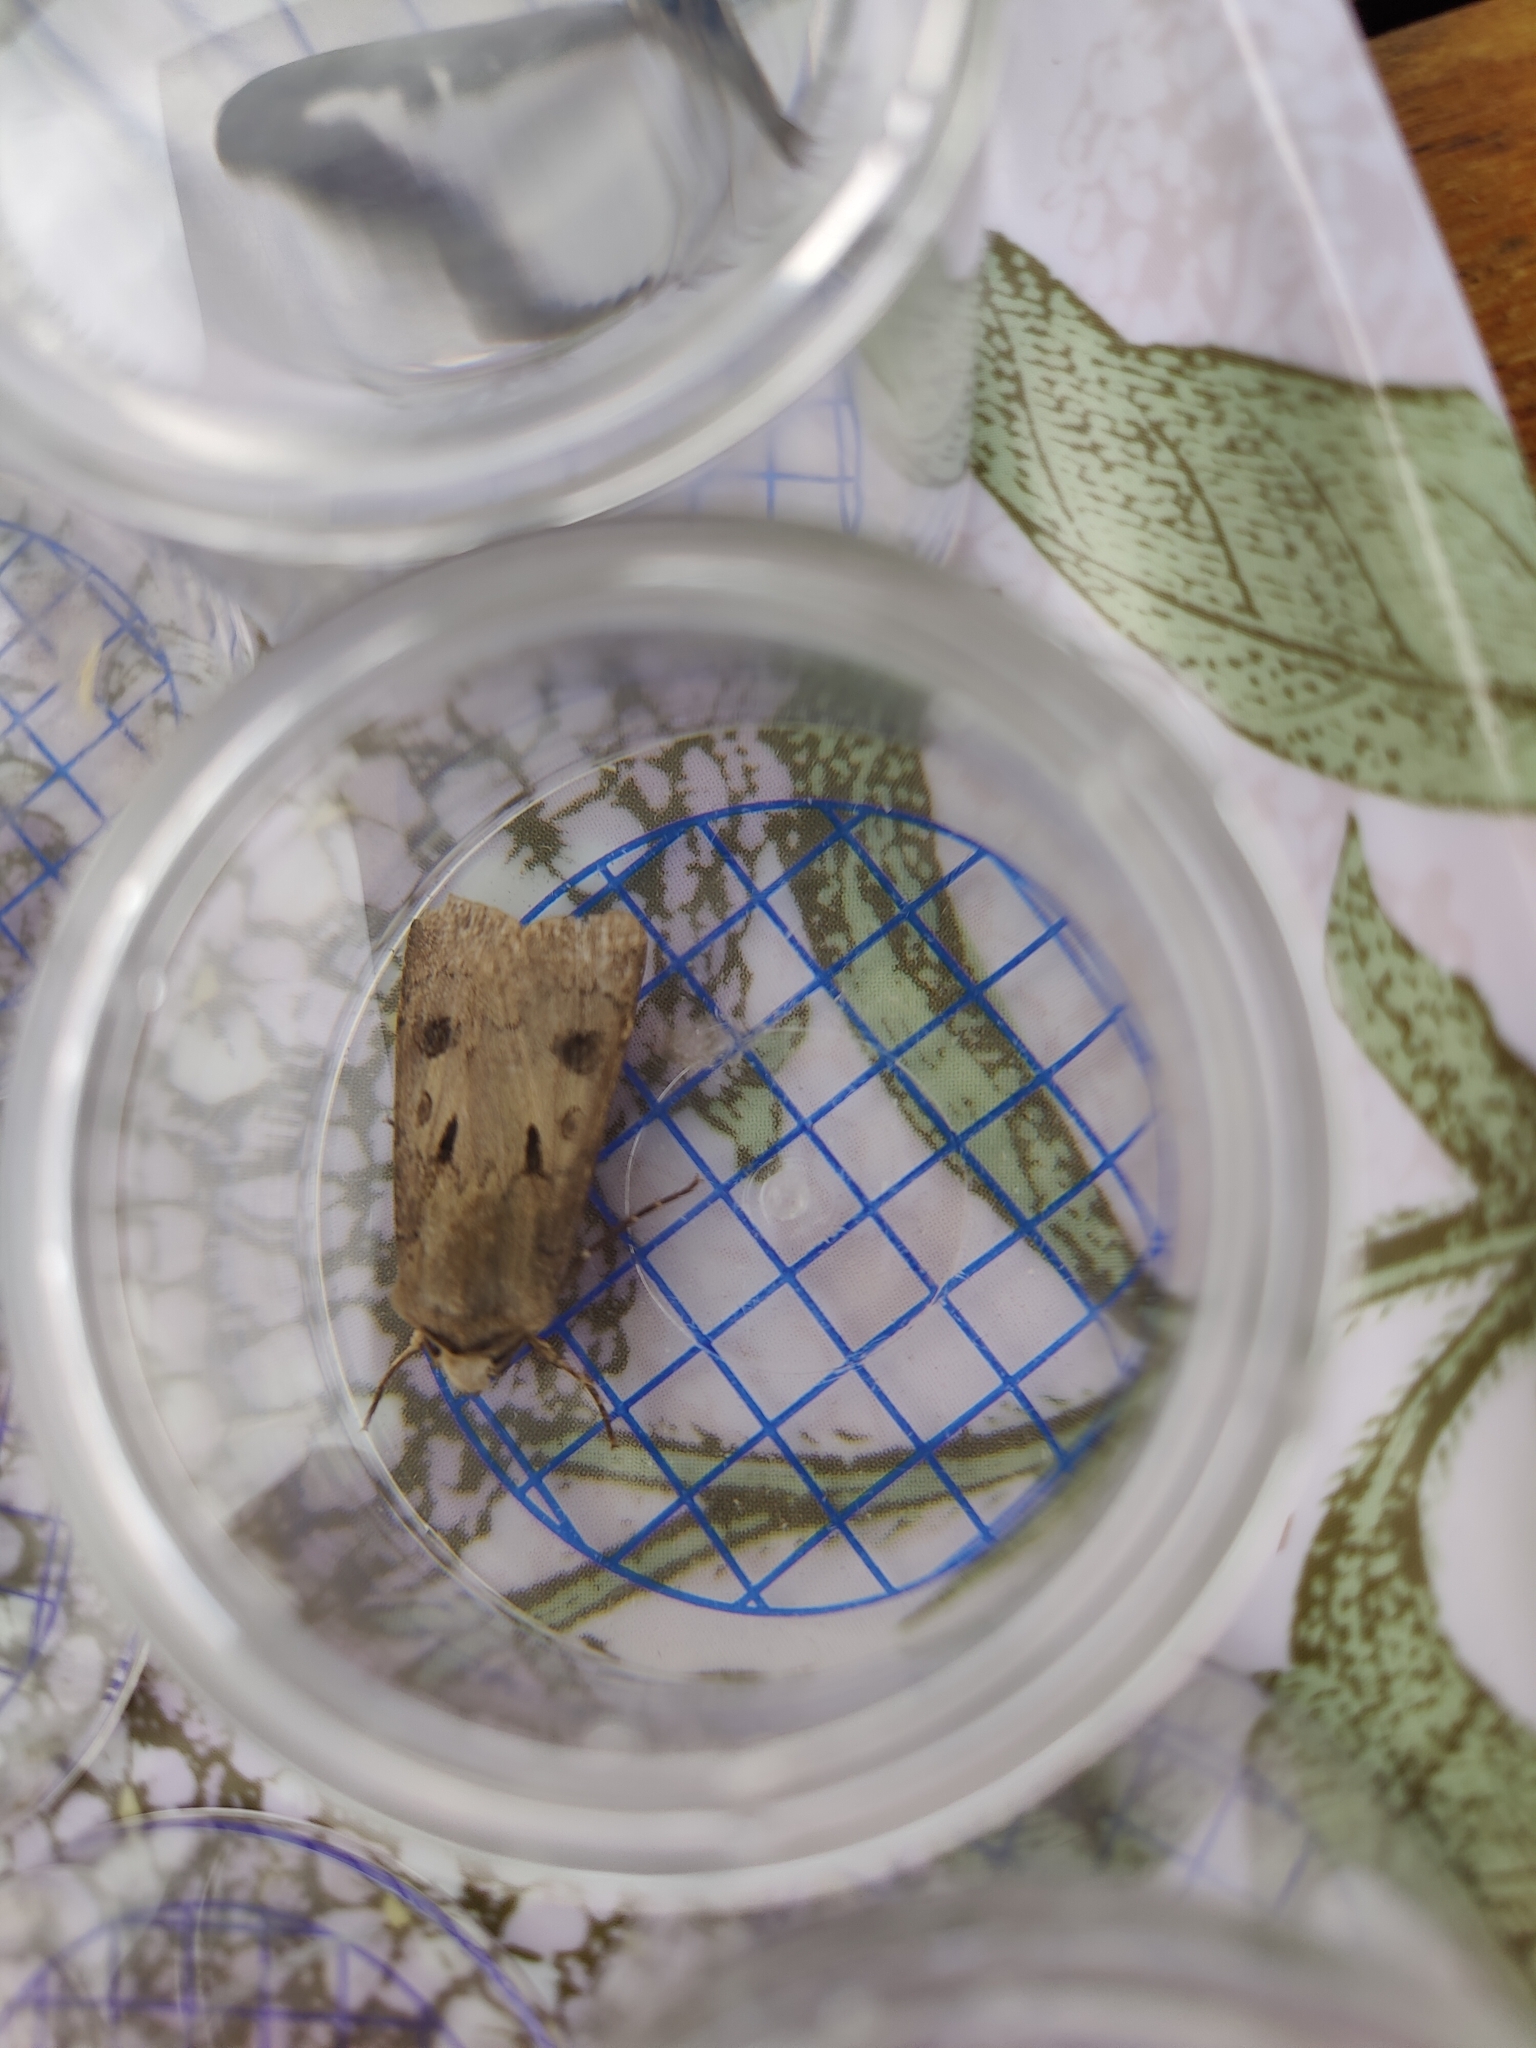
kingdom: Animalia
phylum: Arthropoda
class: Insecta
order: Lepidoptera
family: Noctuidae
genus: Agrotis
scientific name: Agrotis exclamationis
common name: Heart and dart
